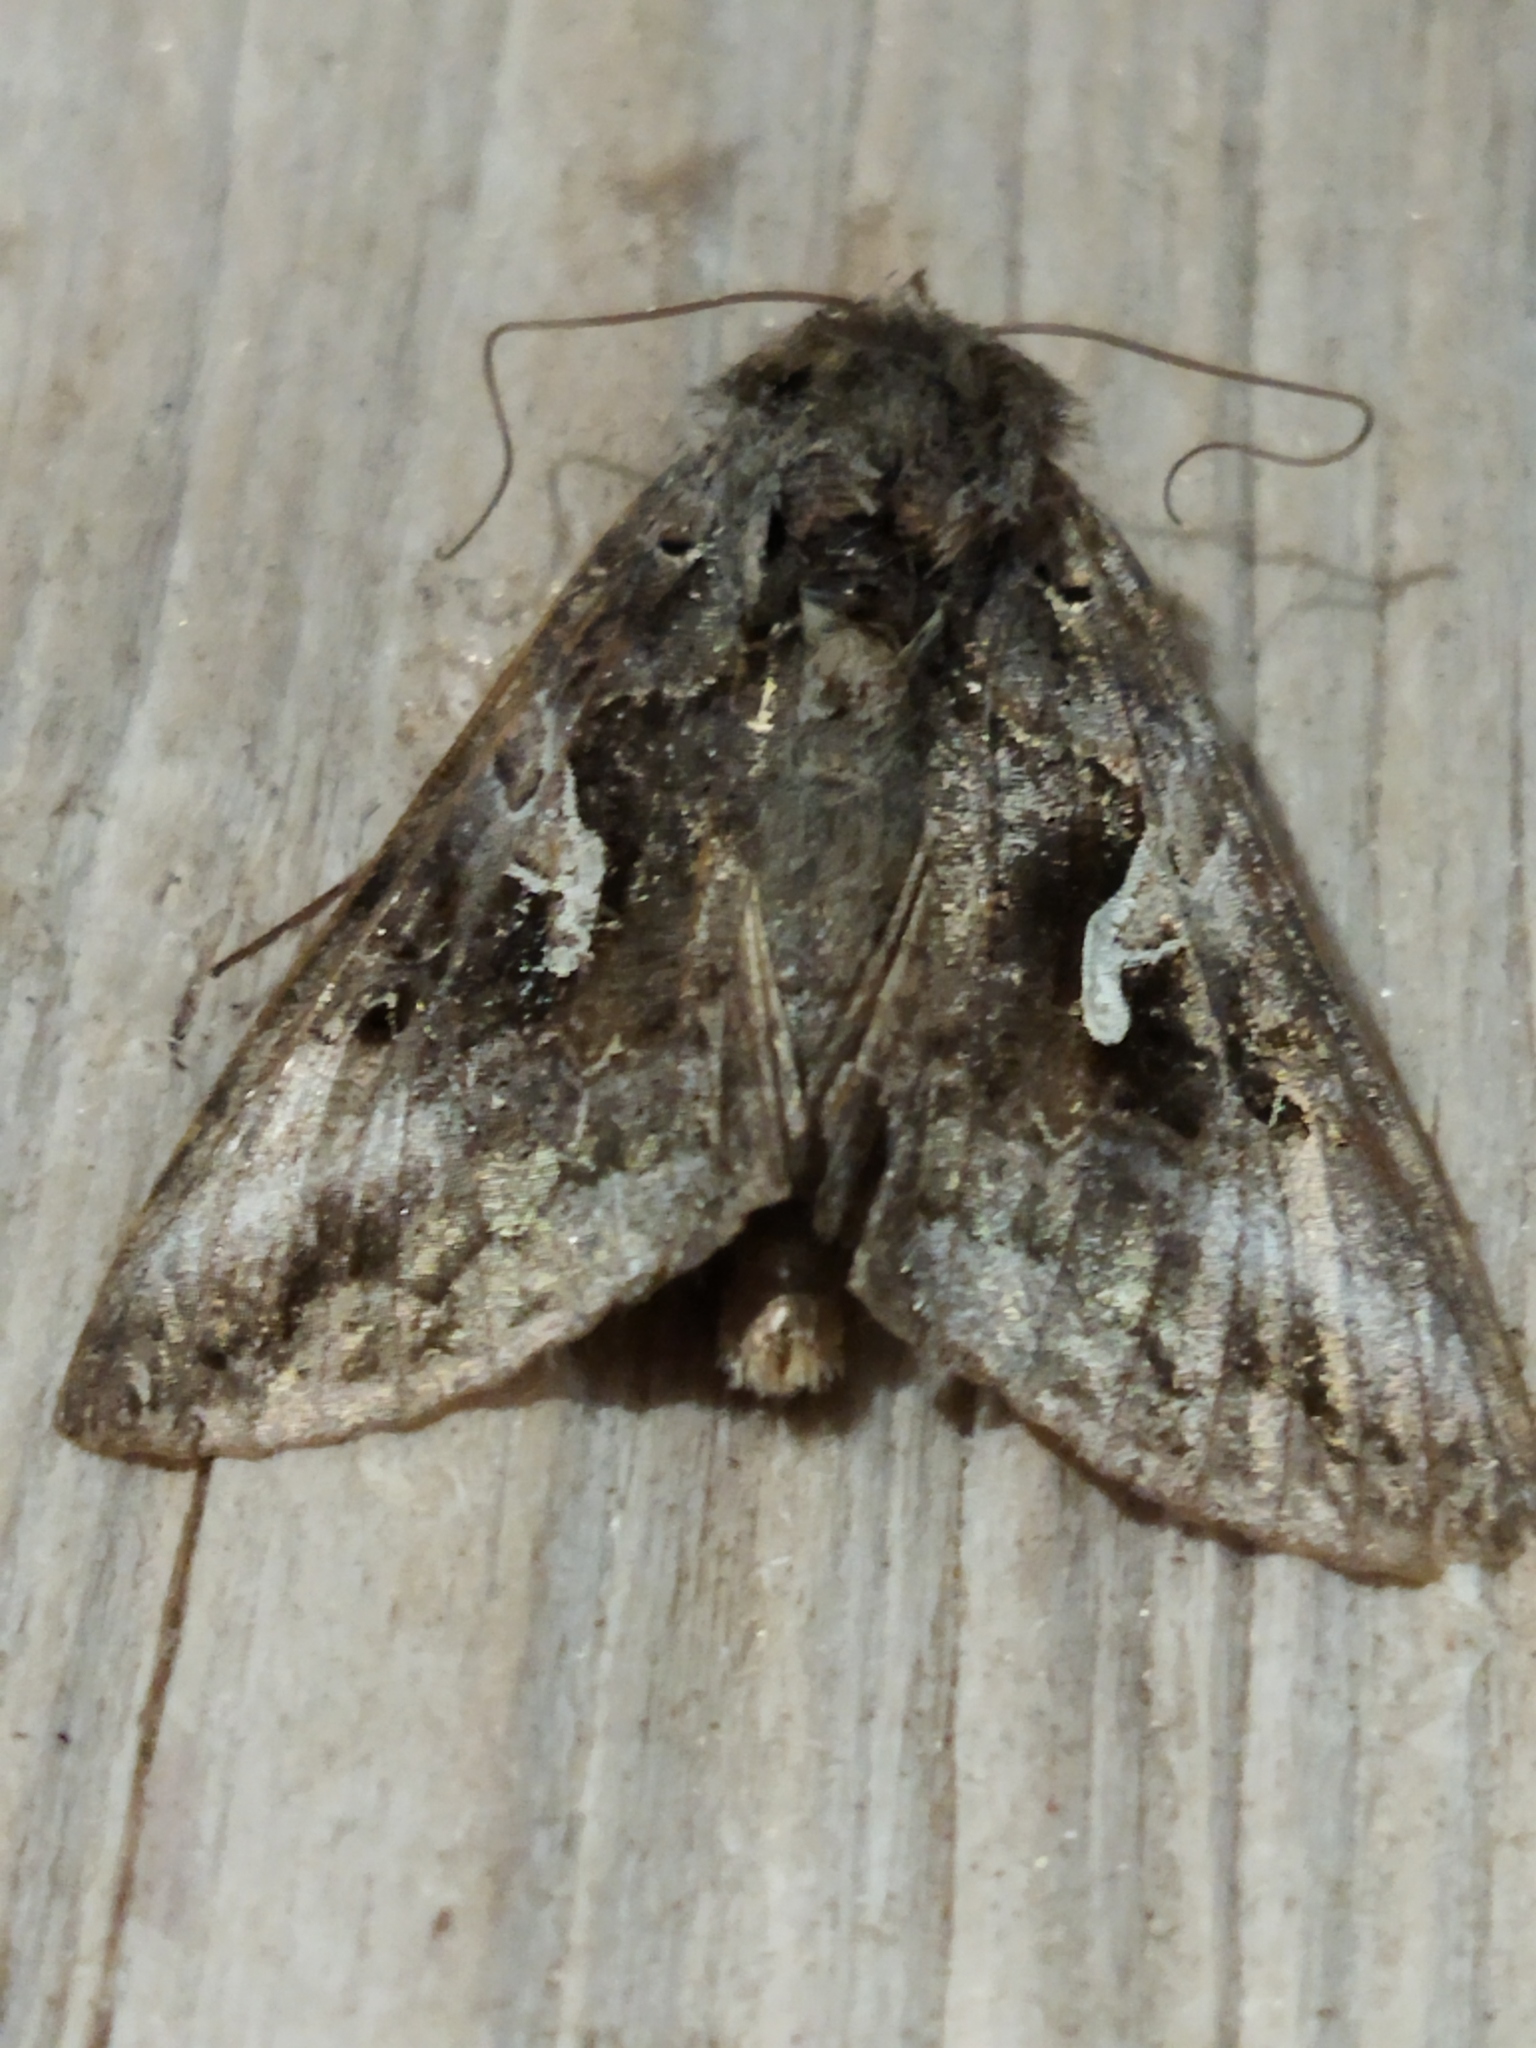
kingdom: Animalia
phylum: Arthropoda
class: Insecta
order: Lepidoptera
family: Noctuidae
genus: Autographa
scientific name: Autographa gamma
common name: Silver y
